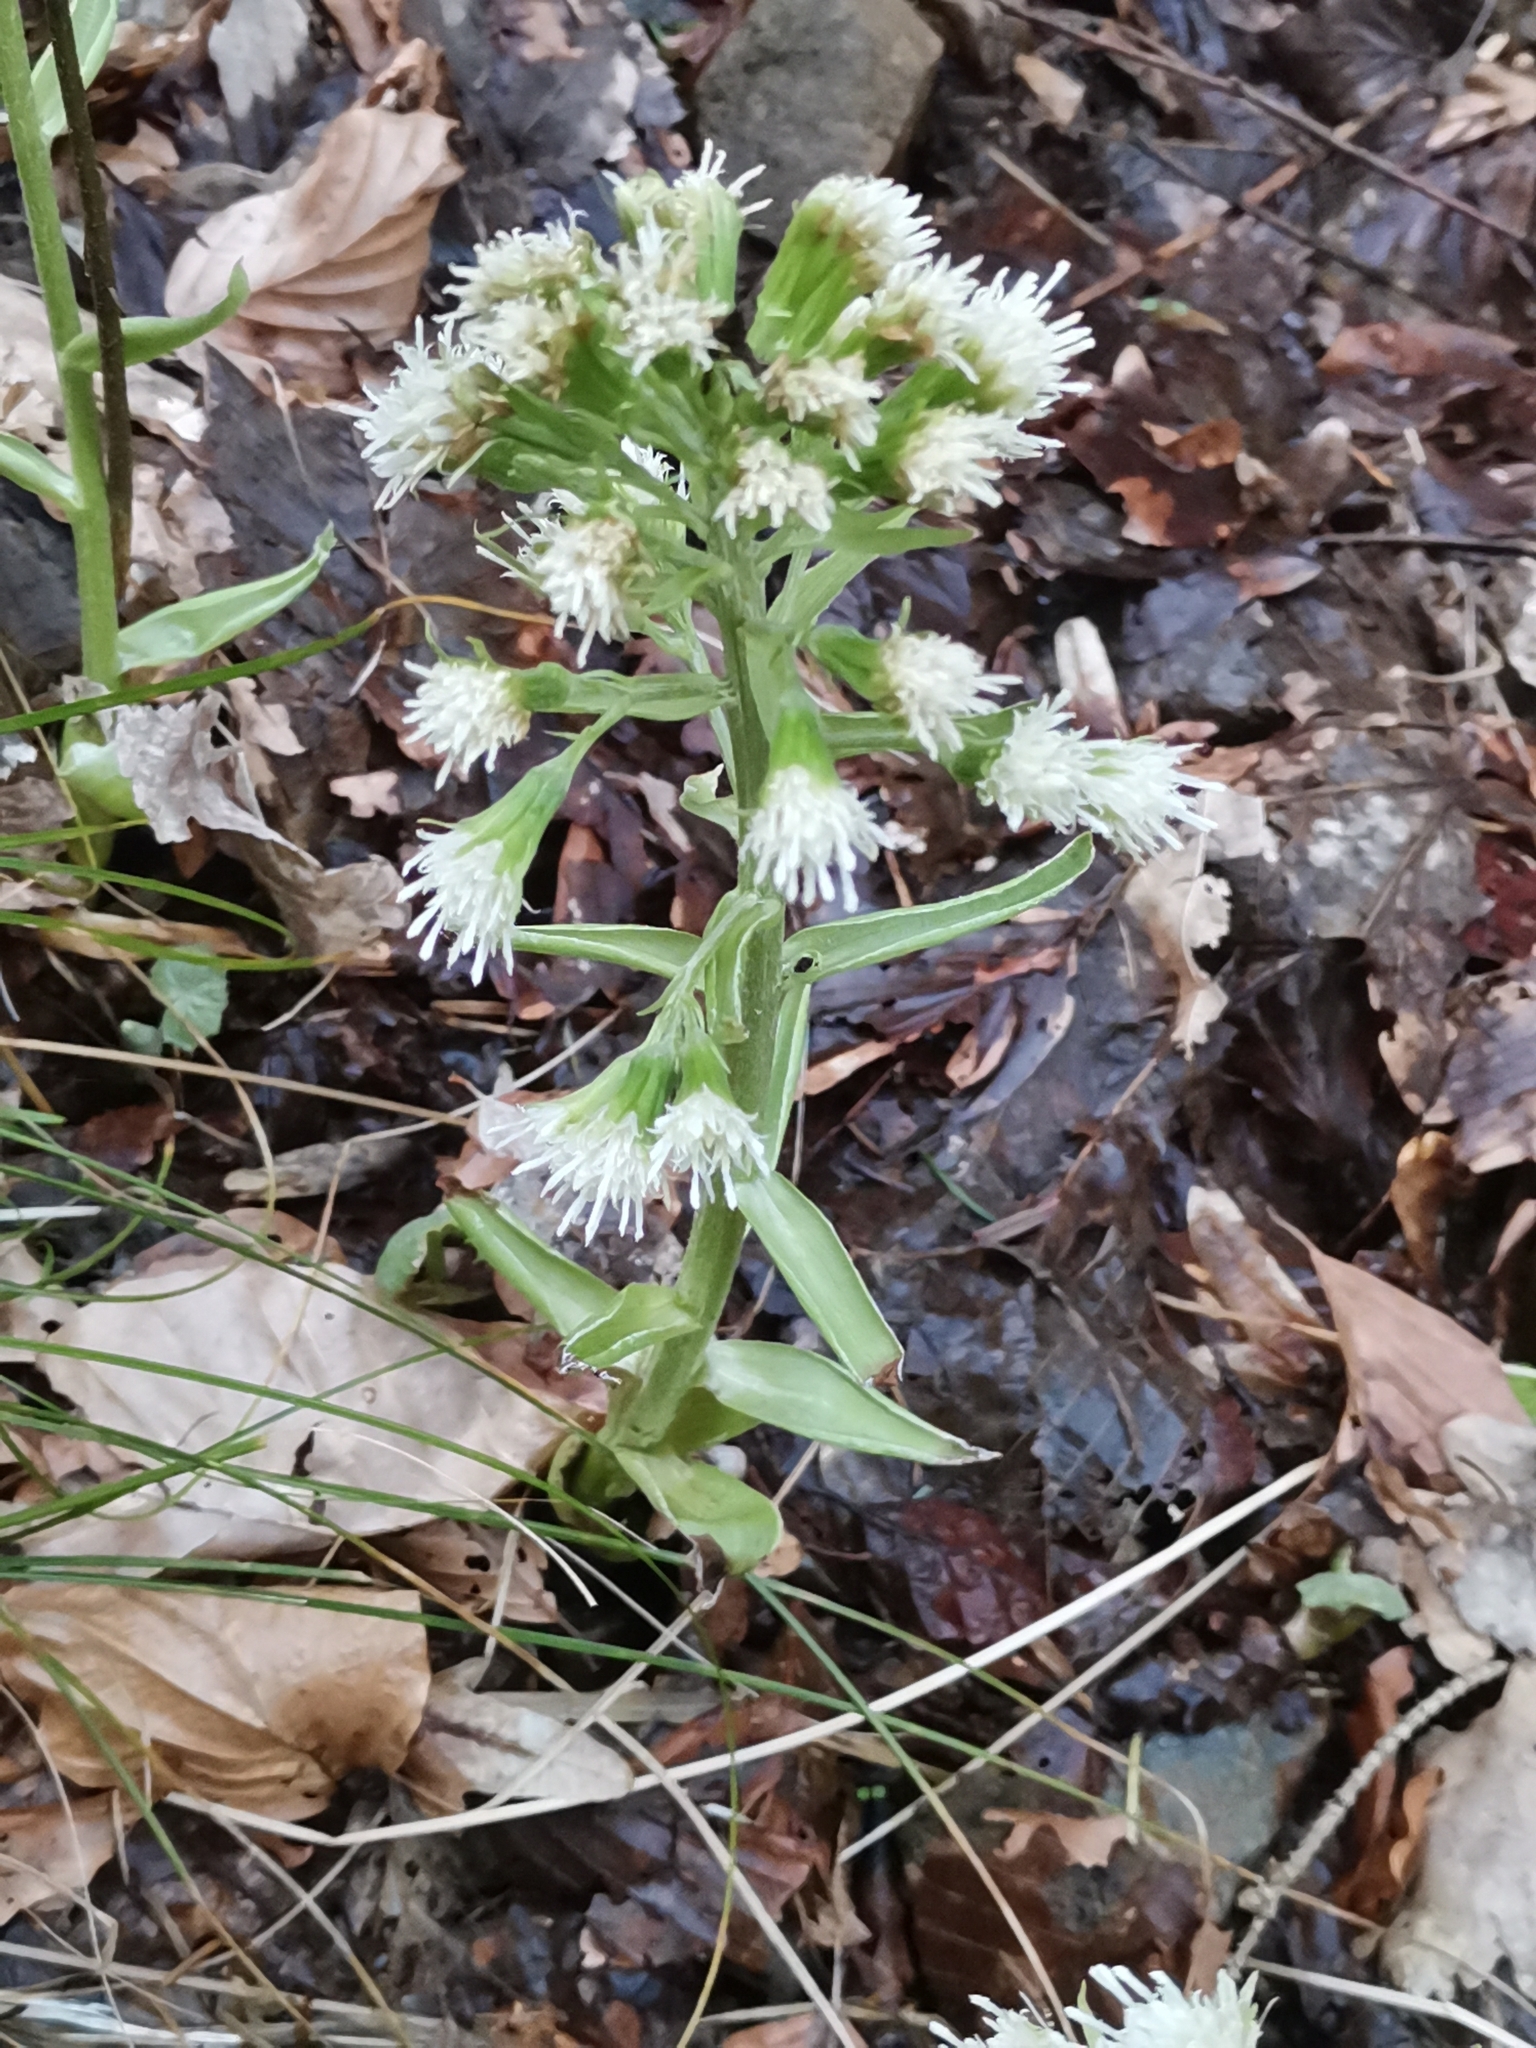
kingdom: Plantae
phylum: Tracheophyta
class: Magnoliopsida
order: Asterales
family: Asteraceae
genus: Petasites
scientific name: Petasites albus
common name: White butterbur
